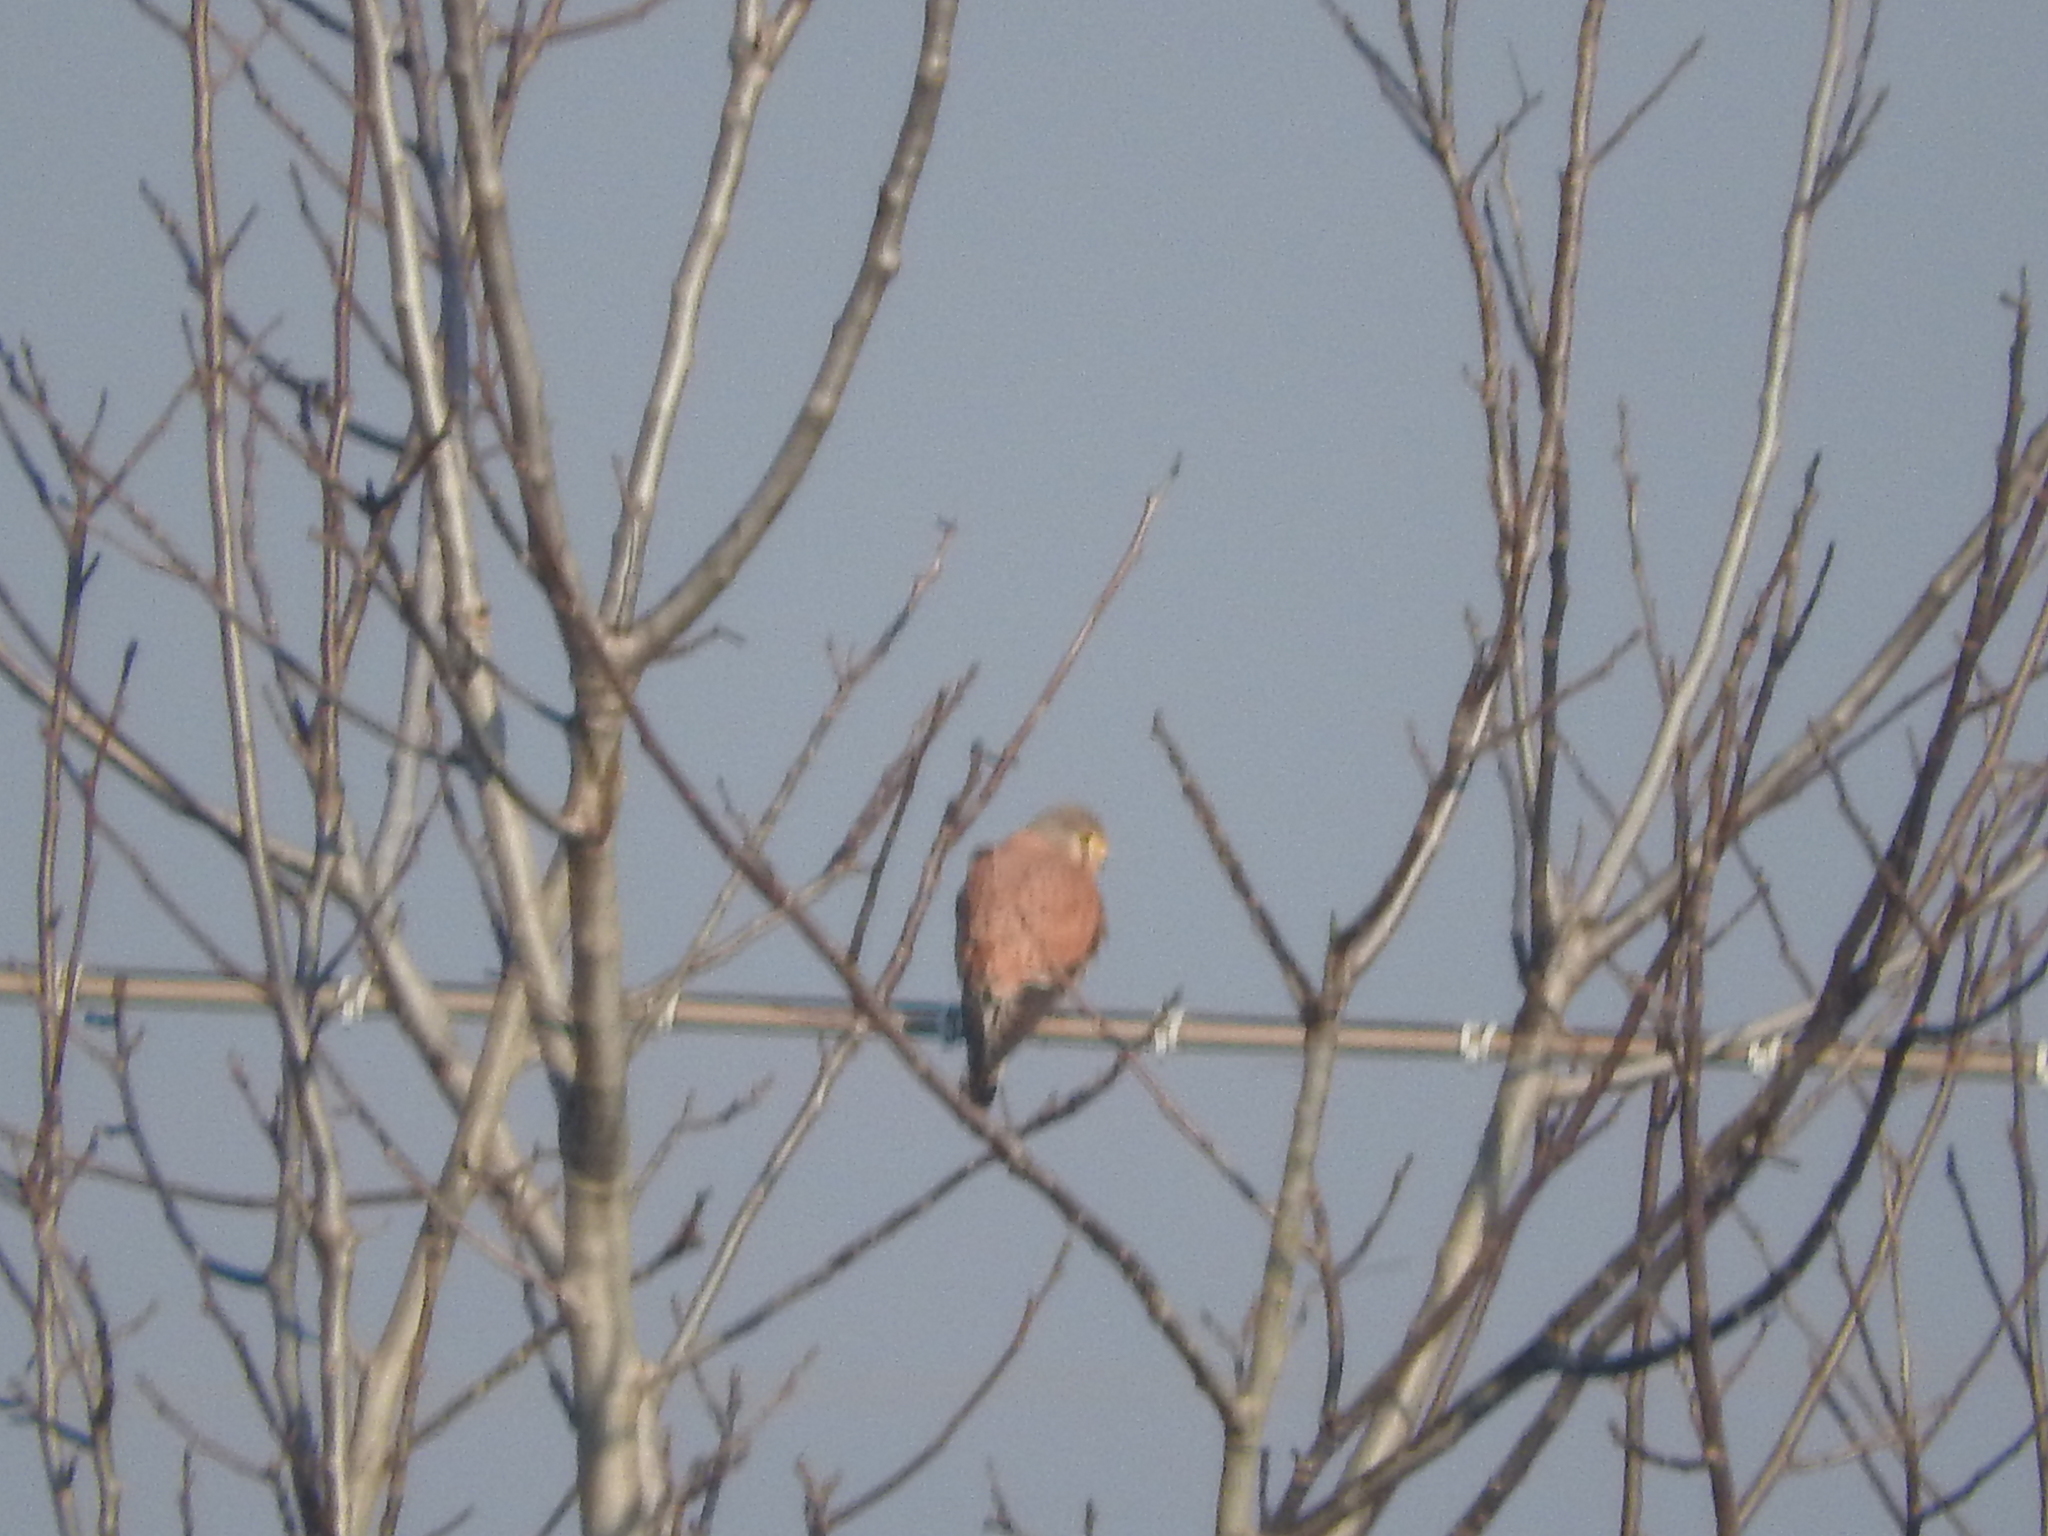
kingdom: Animalia
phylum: Chordata
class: Aves
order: Falconiformes
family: Falconidae
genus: Falco
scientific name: Falco tinnunculus
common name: Common kestrel
